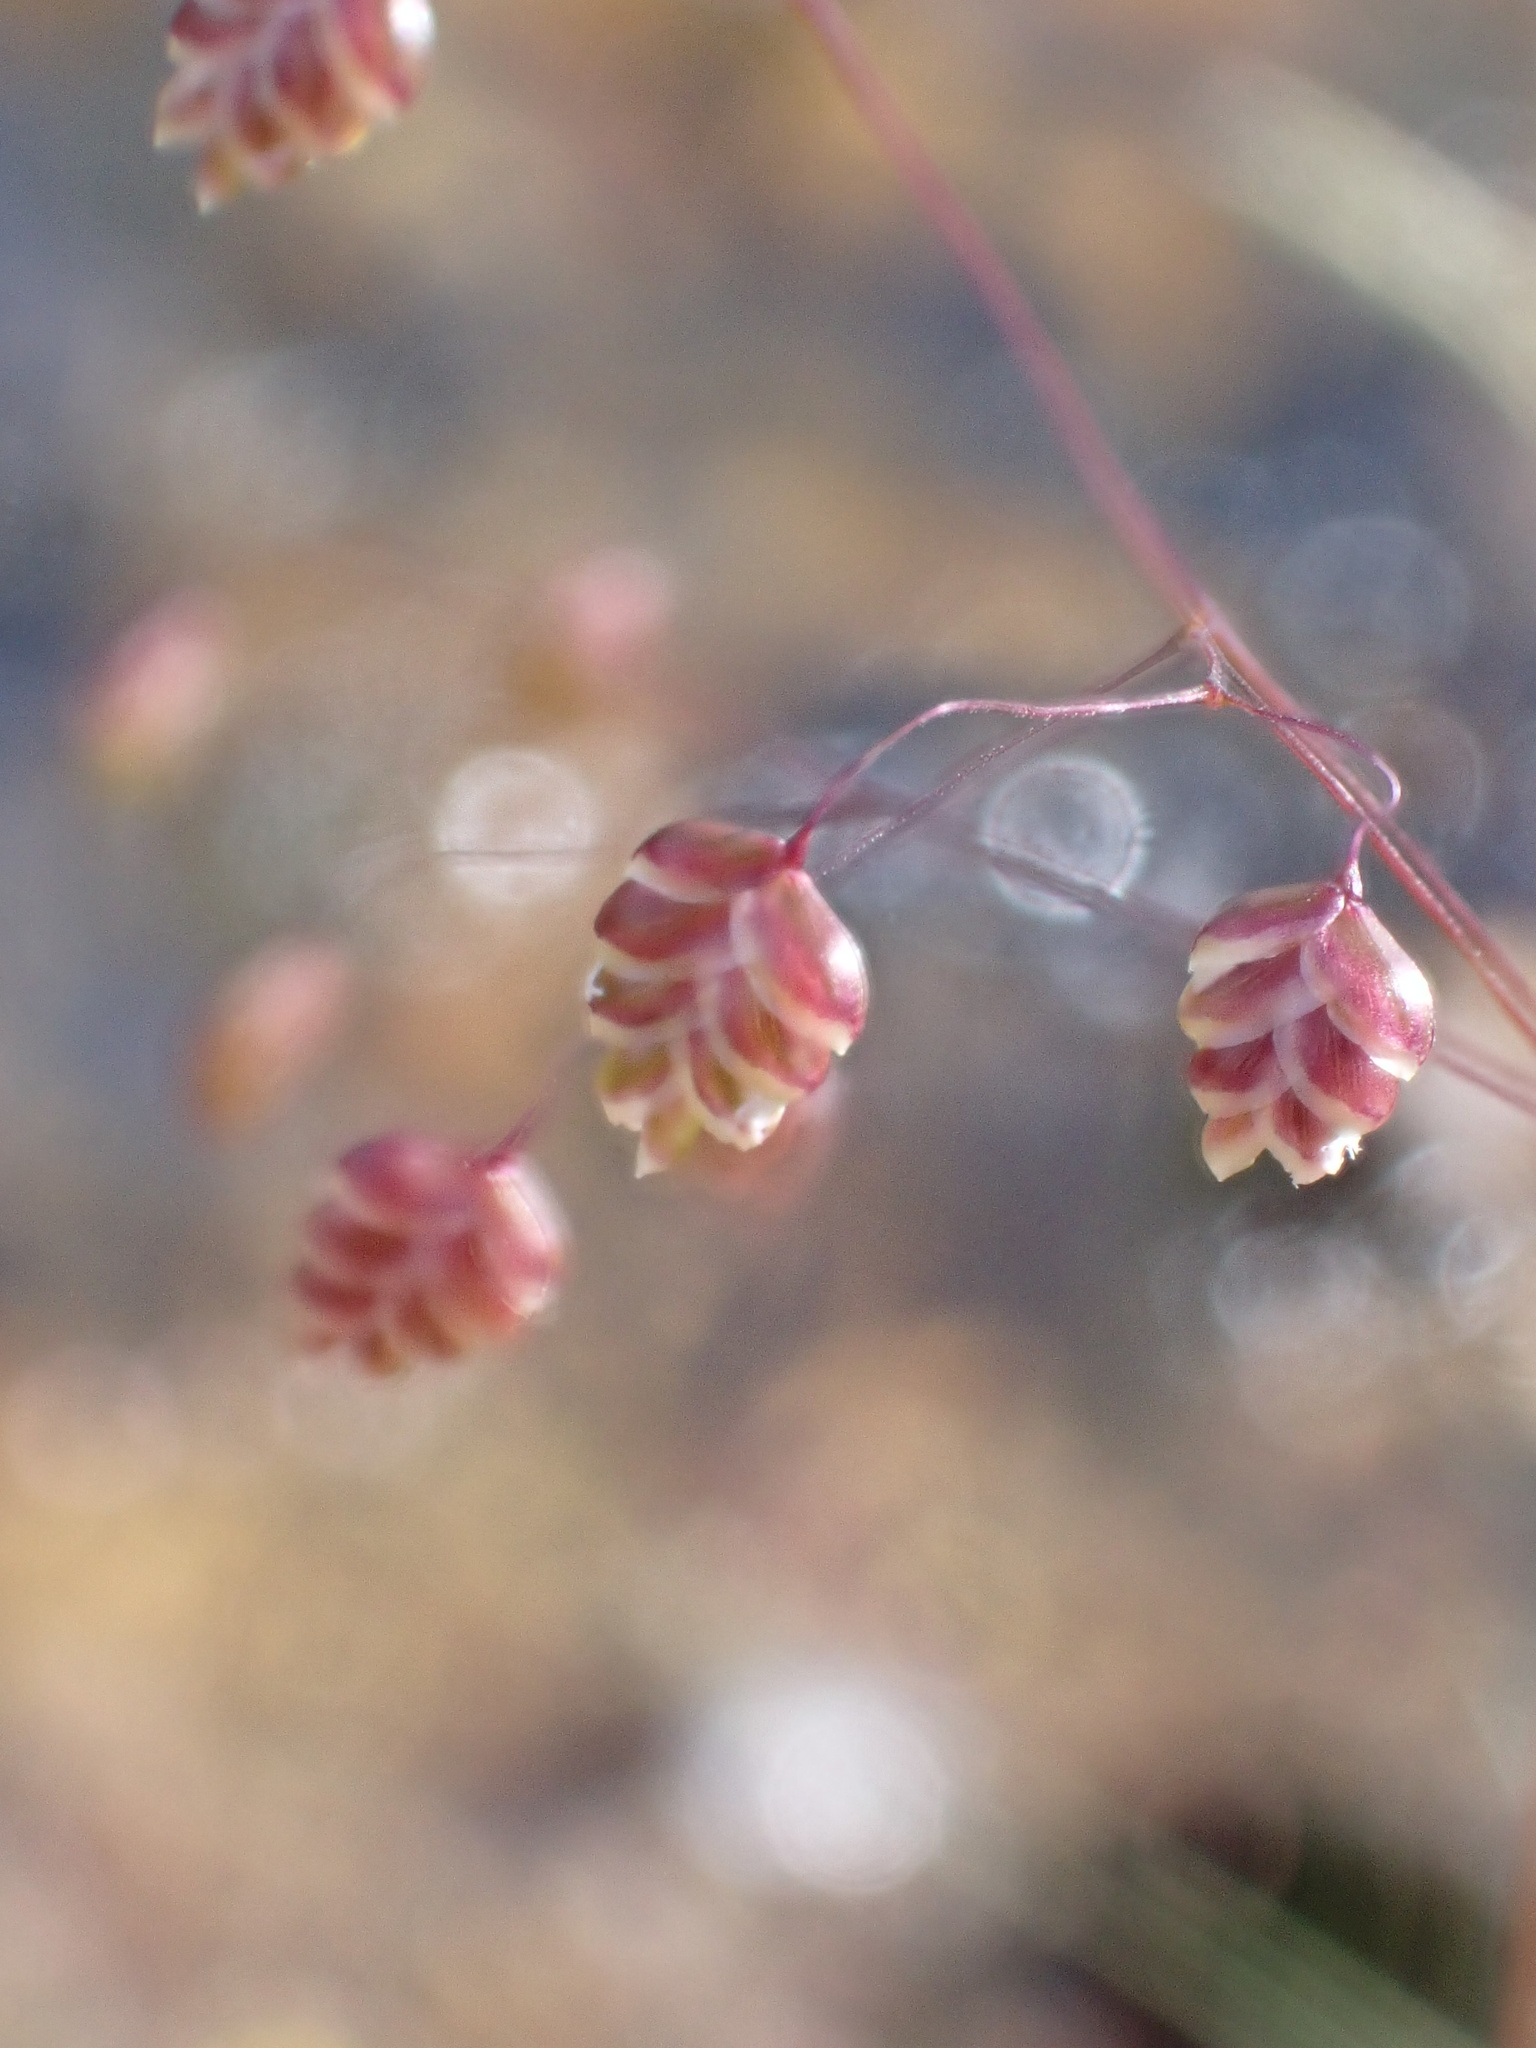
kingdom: Plantae
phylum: Tracheophyta
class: Liliopsida
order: Poales
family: Poaceae
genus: Briza
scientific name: Briza media
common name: Quaking grass
